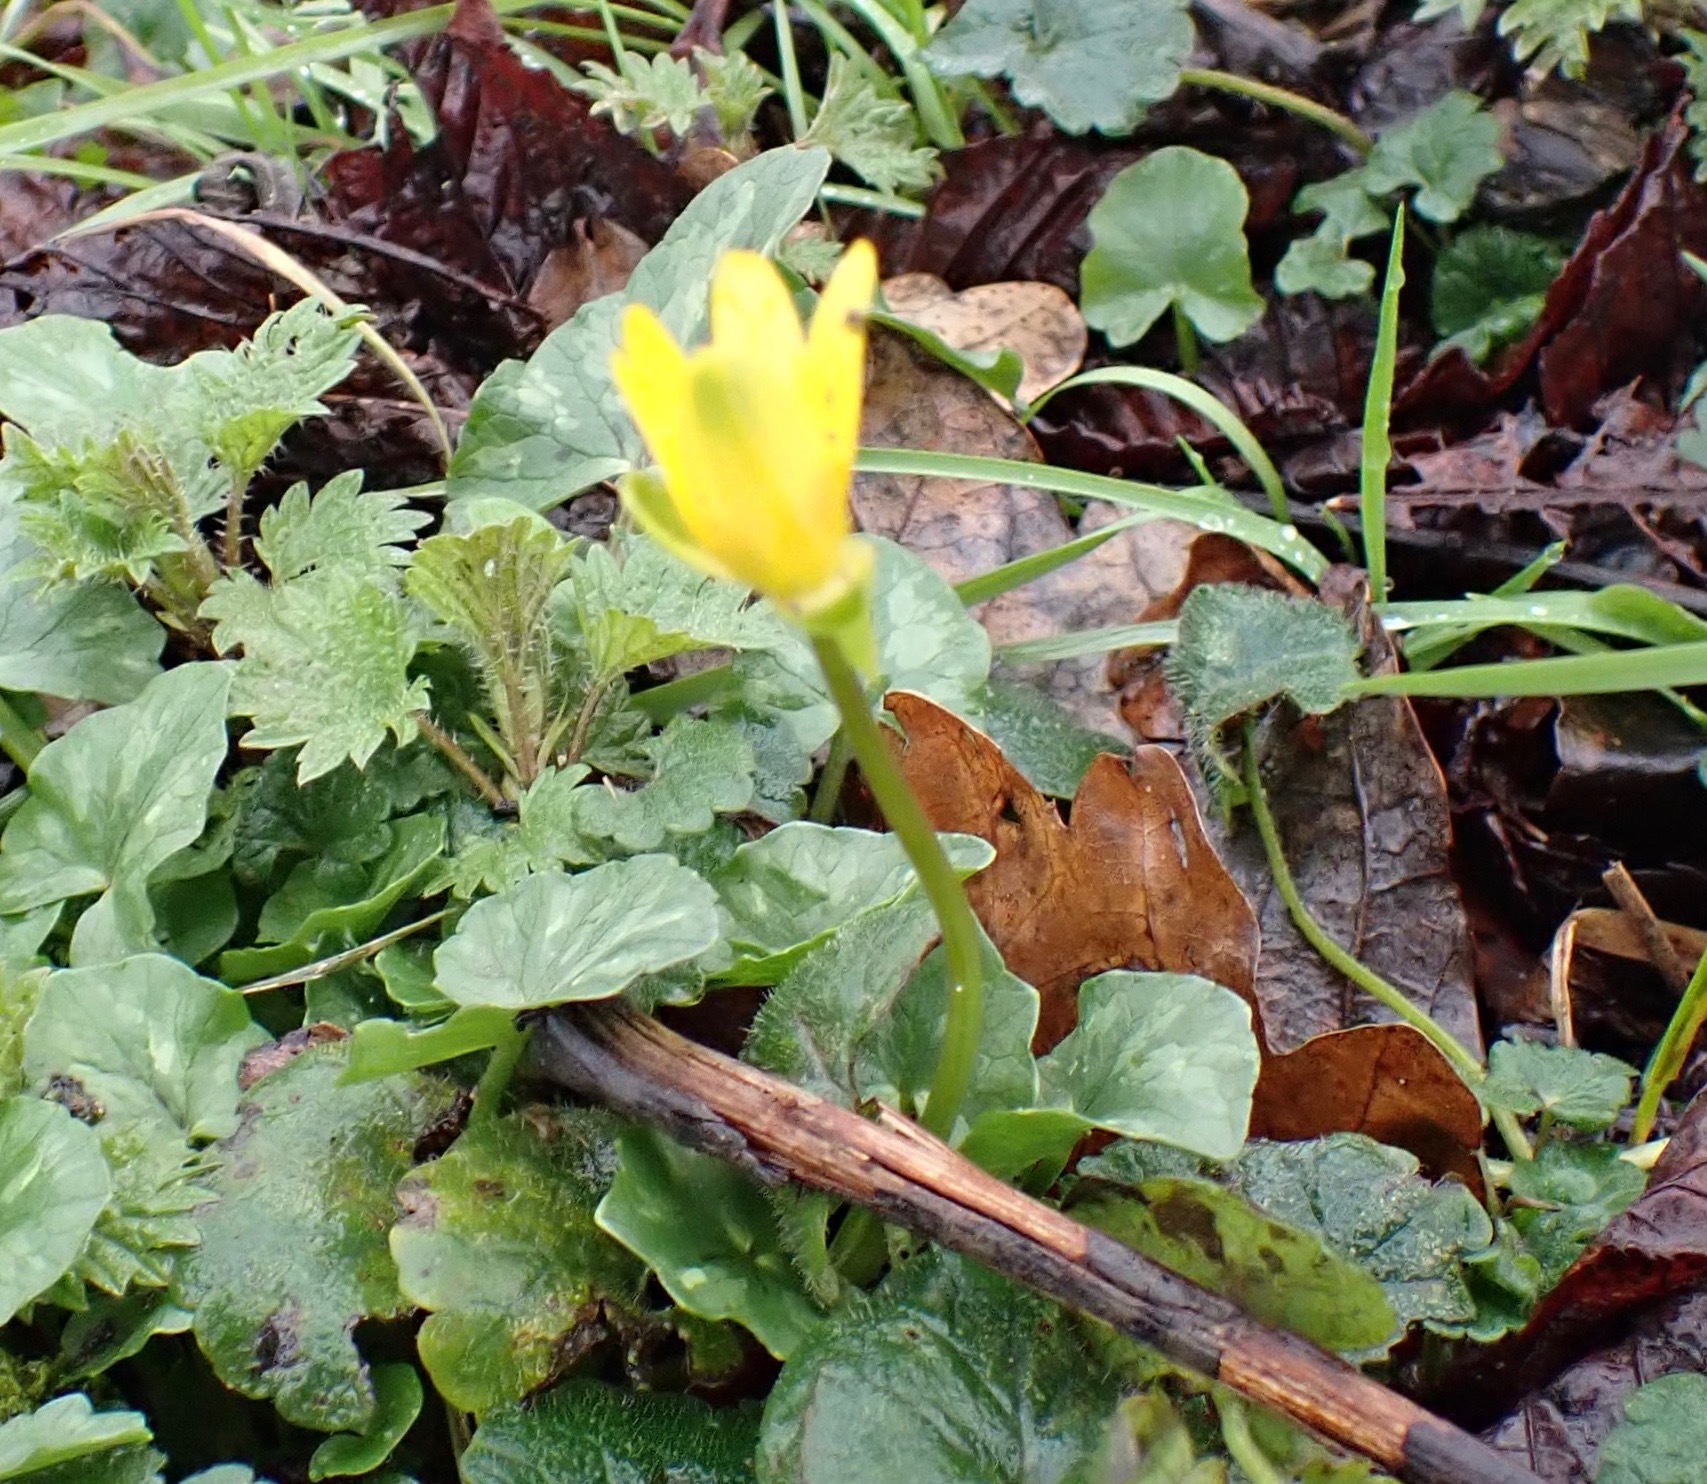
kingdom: Plantae
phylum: Tracheophyta
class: Magnoliopsida
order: Ranunculales
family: Ranunculaceae
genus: Ficaria
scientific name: Ficaria verna
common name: Lesser celandine
